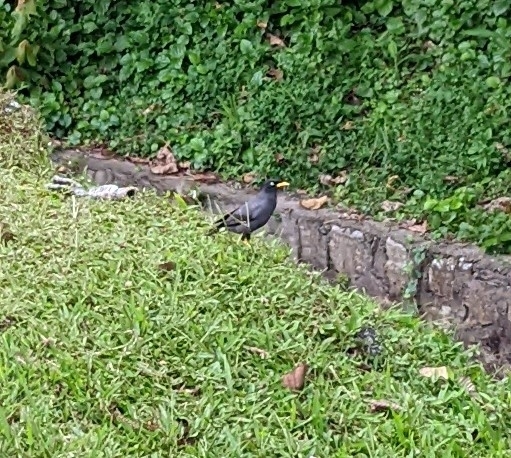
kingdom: Animalia
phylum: Chordata
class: Aves
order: Passeriformes
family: Sturnidae
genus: Acridotheres
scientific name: Acridotheres javanicus
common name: Javan myna
